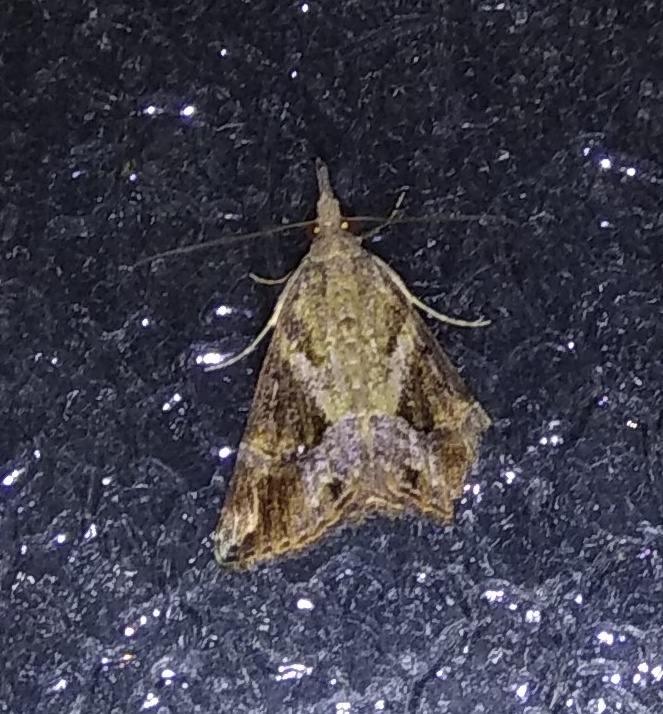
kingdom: Animalia
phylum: Arthropoda
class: Insecta
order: Lepidoptera
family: Erebidae
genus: Hypena
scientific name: Hypena commixtalis
